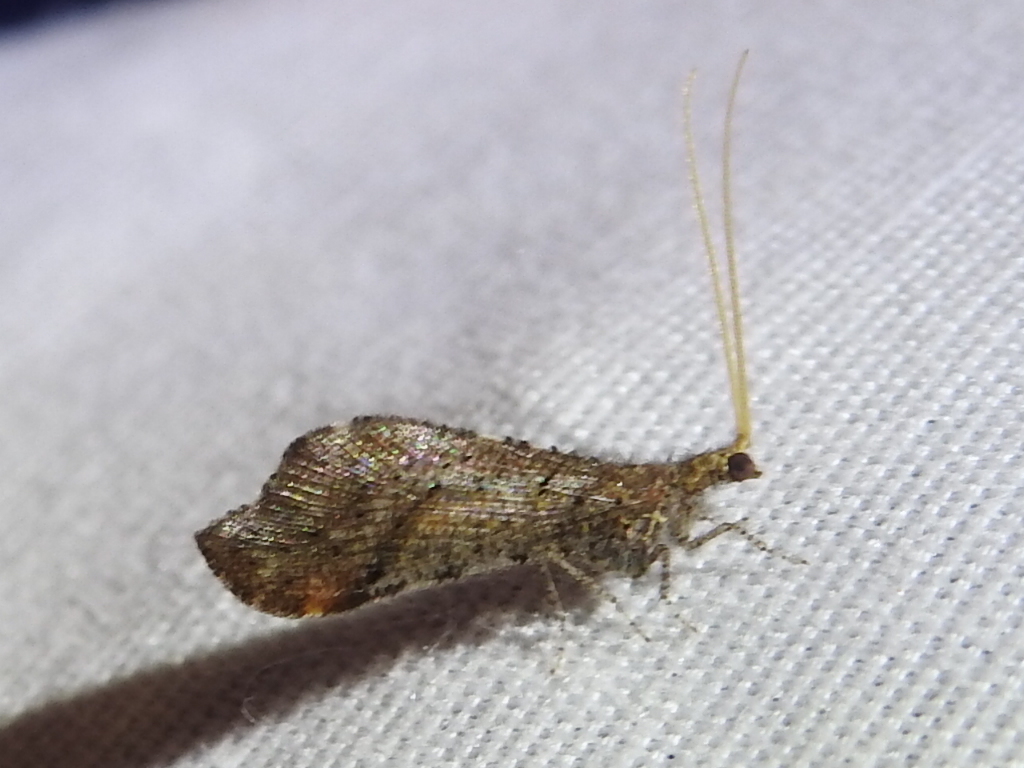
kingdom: Animalia
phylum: Arthropoda
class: Insecta
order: Neuroptera
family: Berothidae
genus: Lomamyia
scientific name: Lomamyia squamosa
